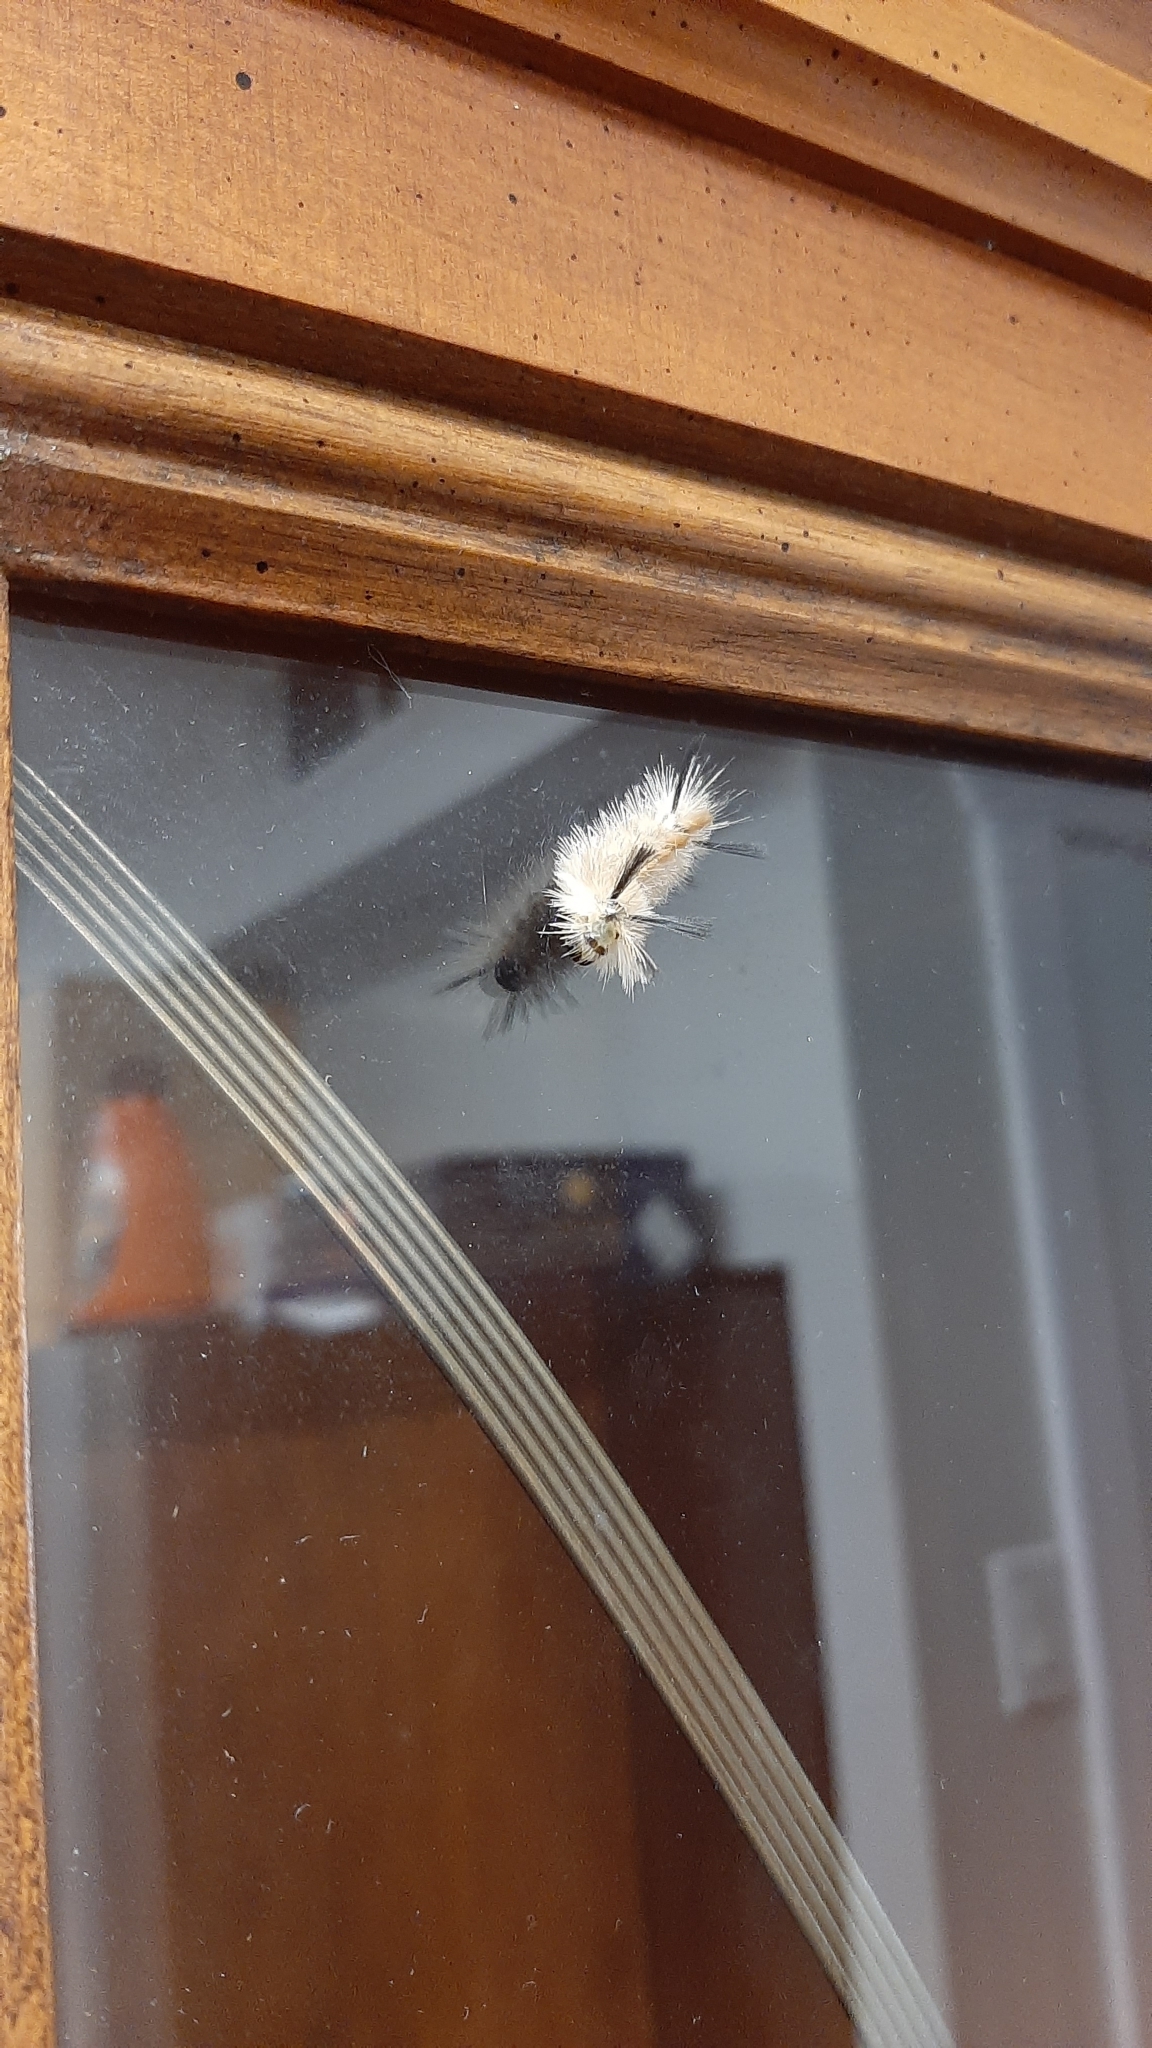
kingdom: Animalia
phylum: Arthropoda
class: Insecta
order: Lepidoptera
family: Erebidae
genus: Halysidota
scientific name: Halysidota tessellaris
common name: Banded tussock moth
